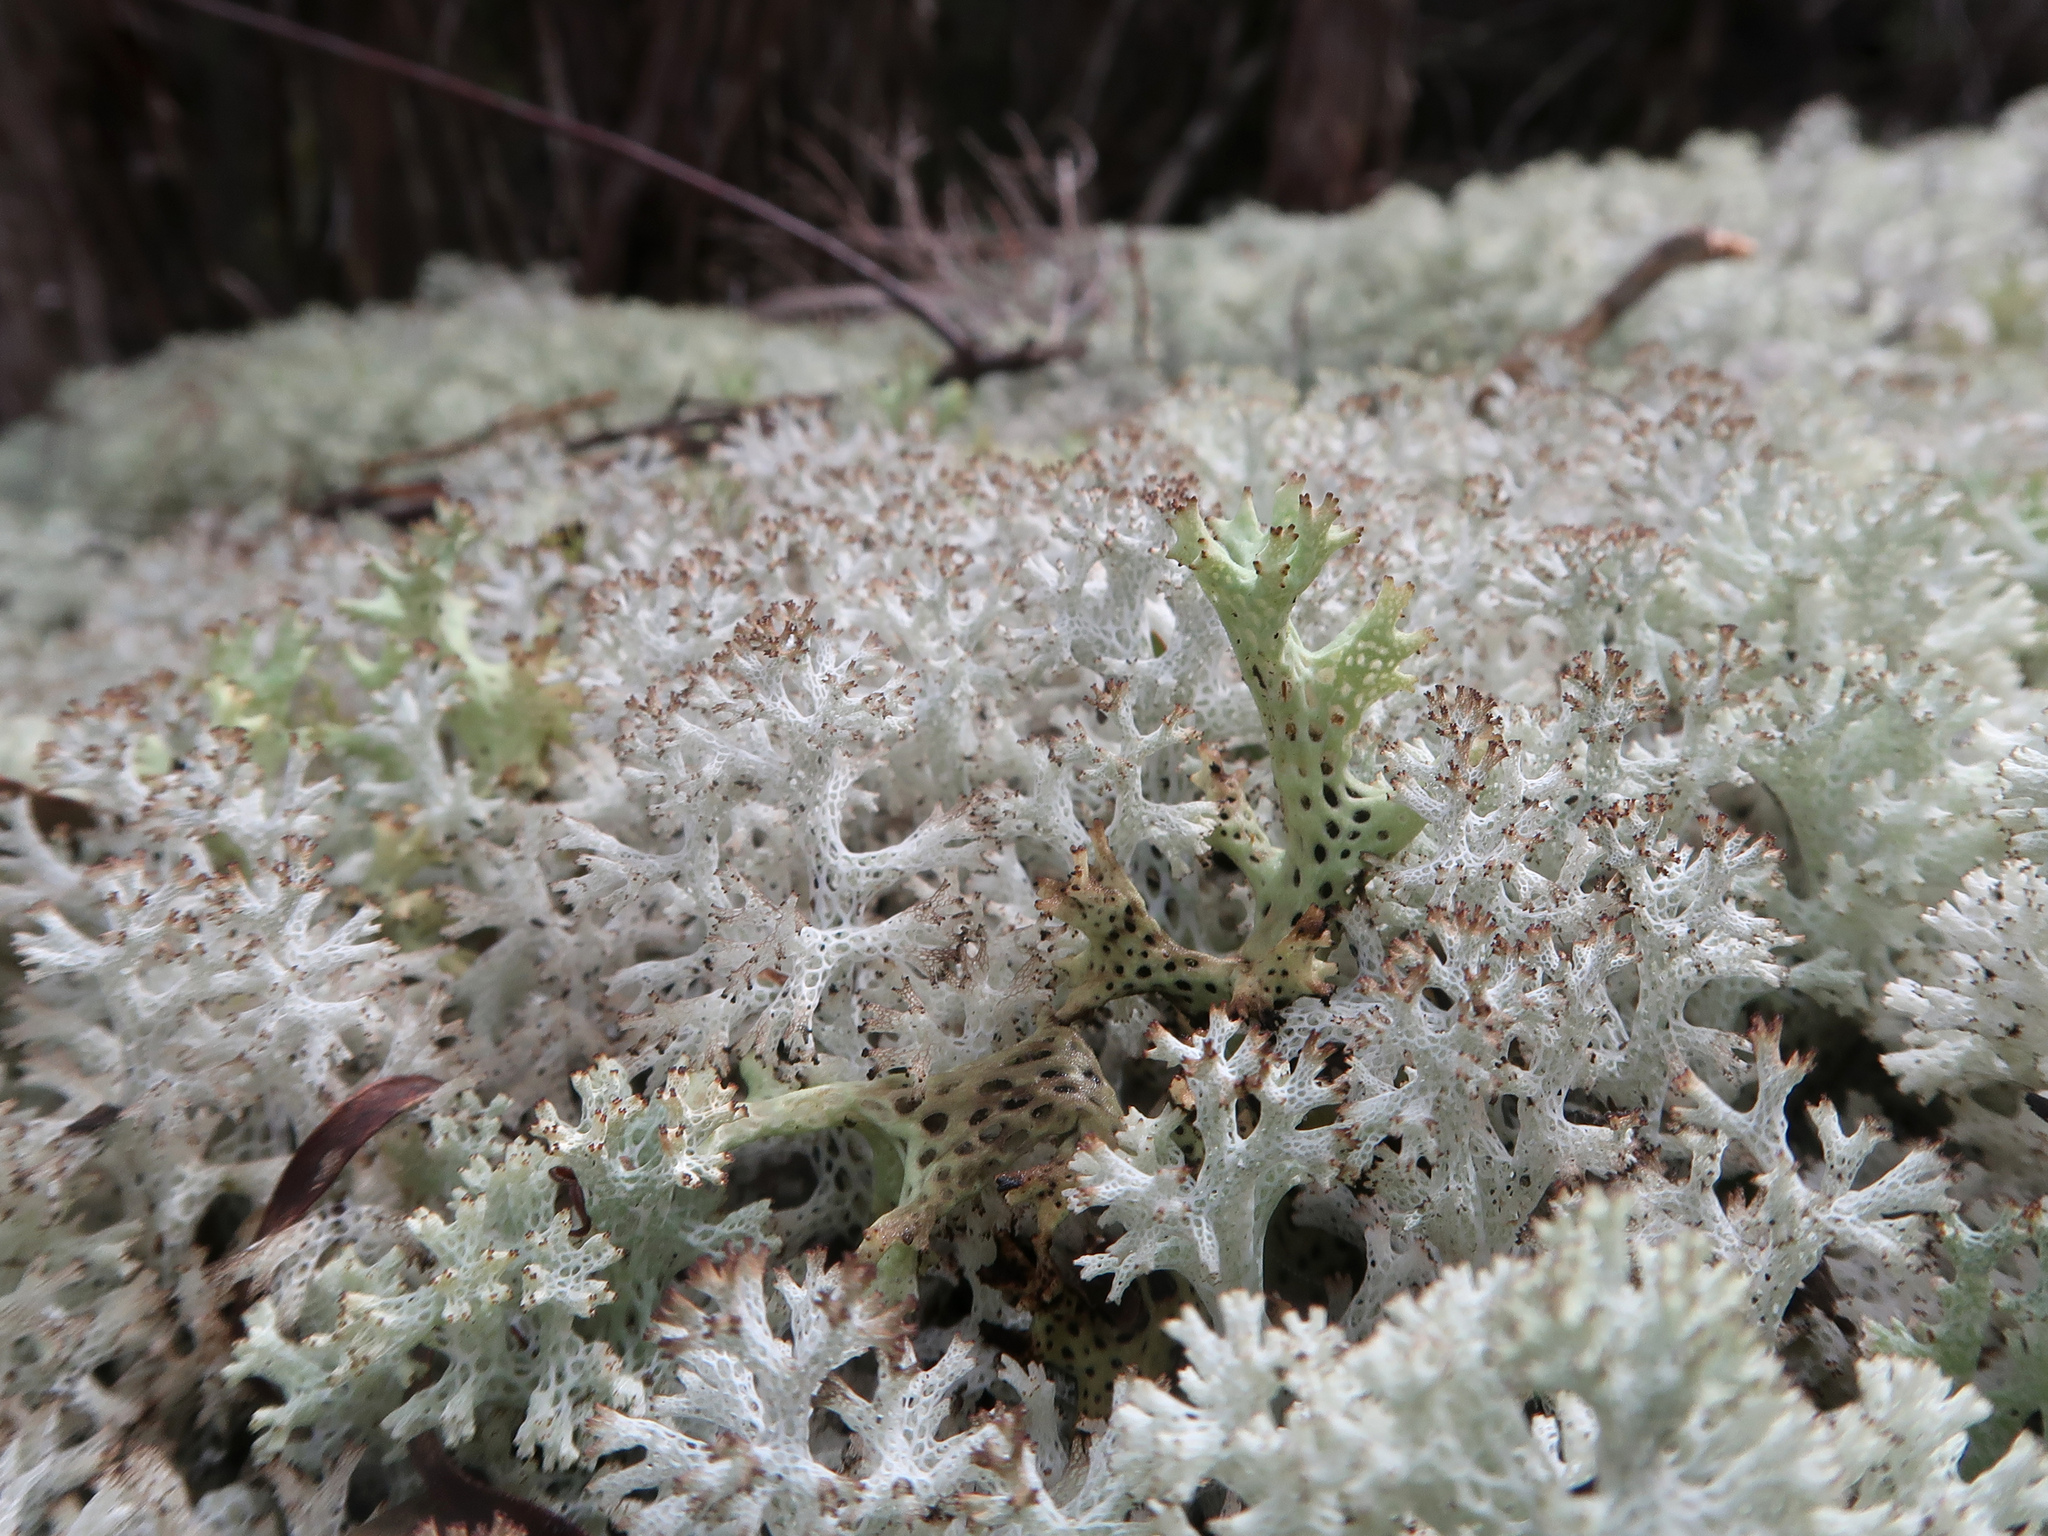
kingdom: Fungi
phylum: Ascomycota
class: Lecanoromycetes
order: Lecanorales
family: Cladoniaceae
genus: Pulchrocladia
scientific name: Pulchrocladia retipora
